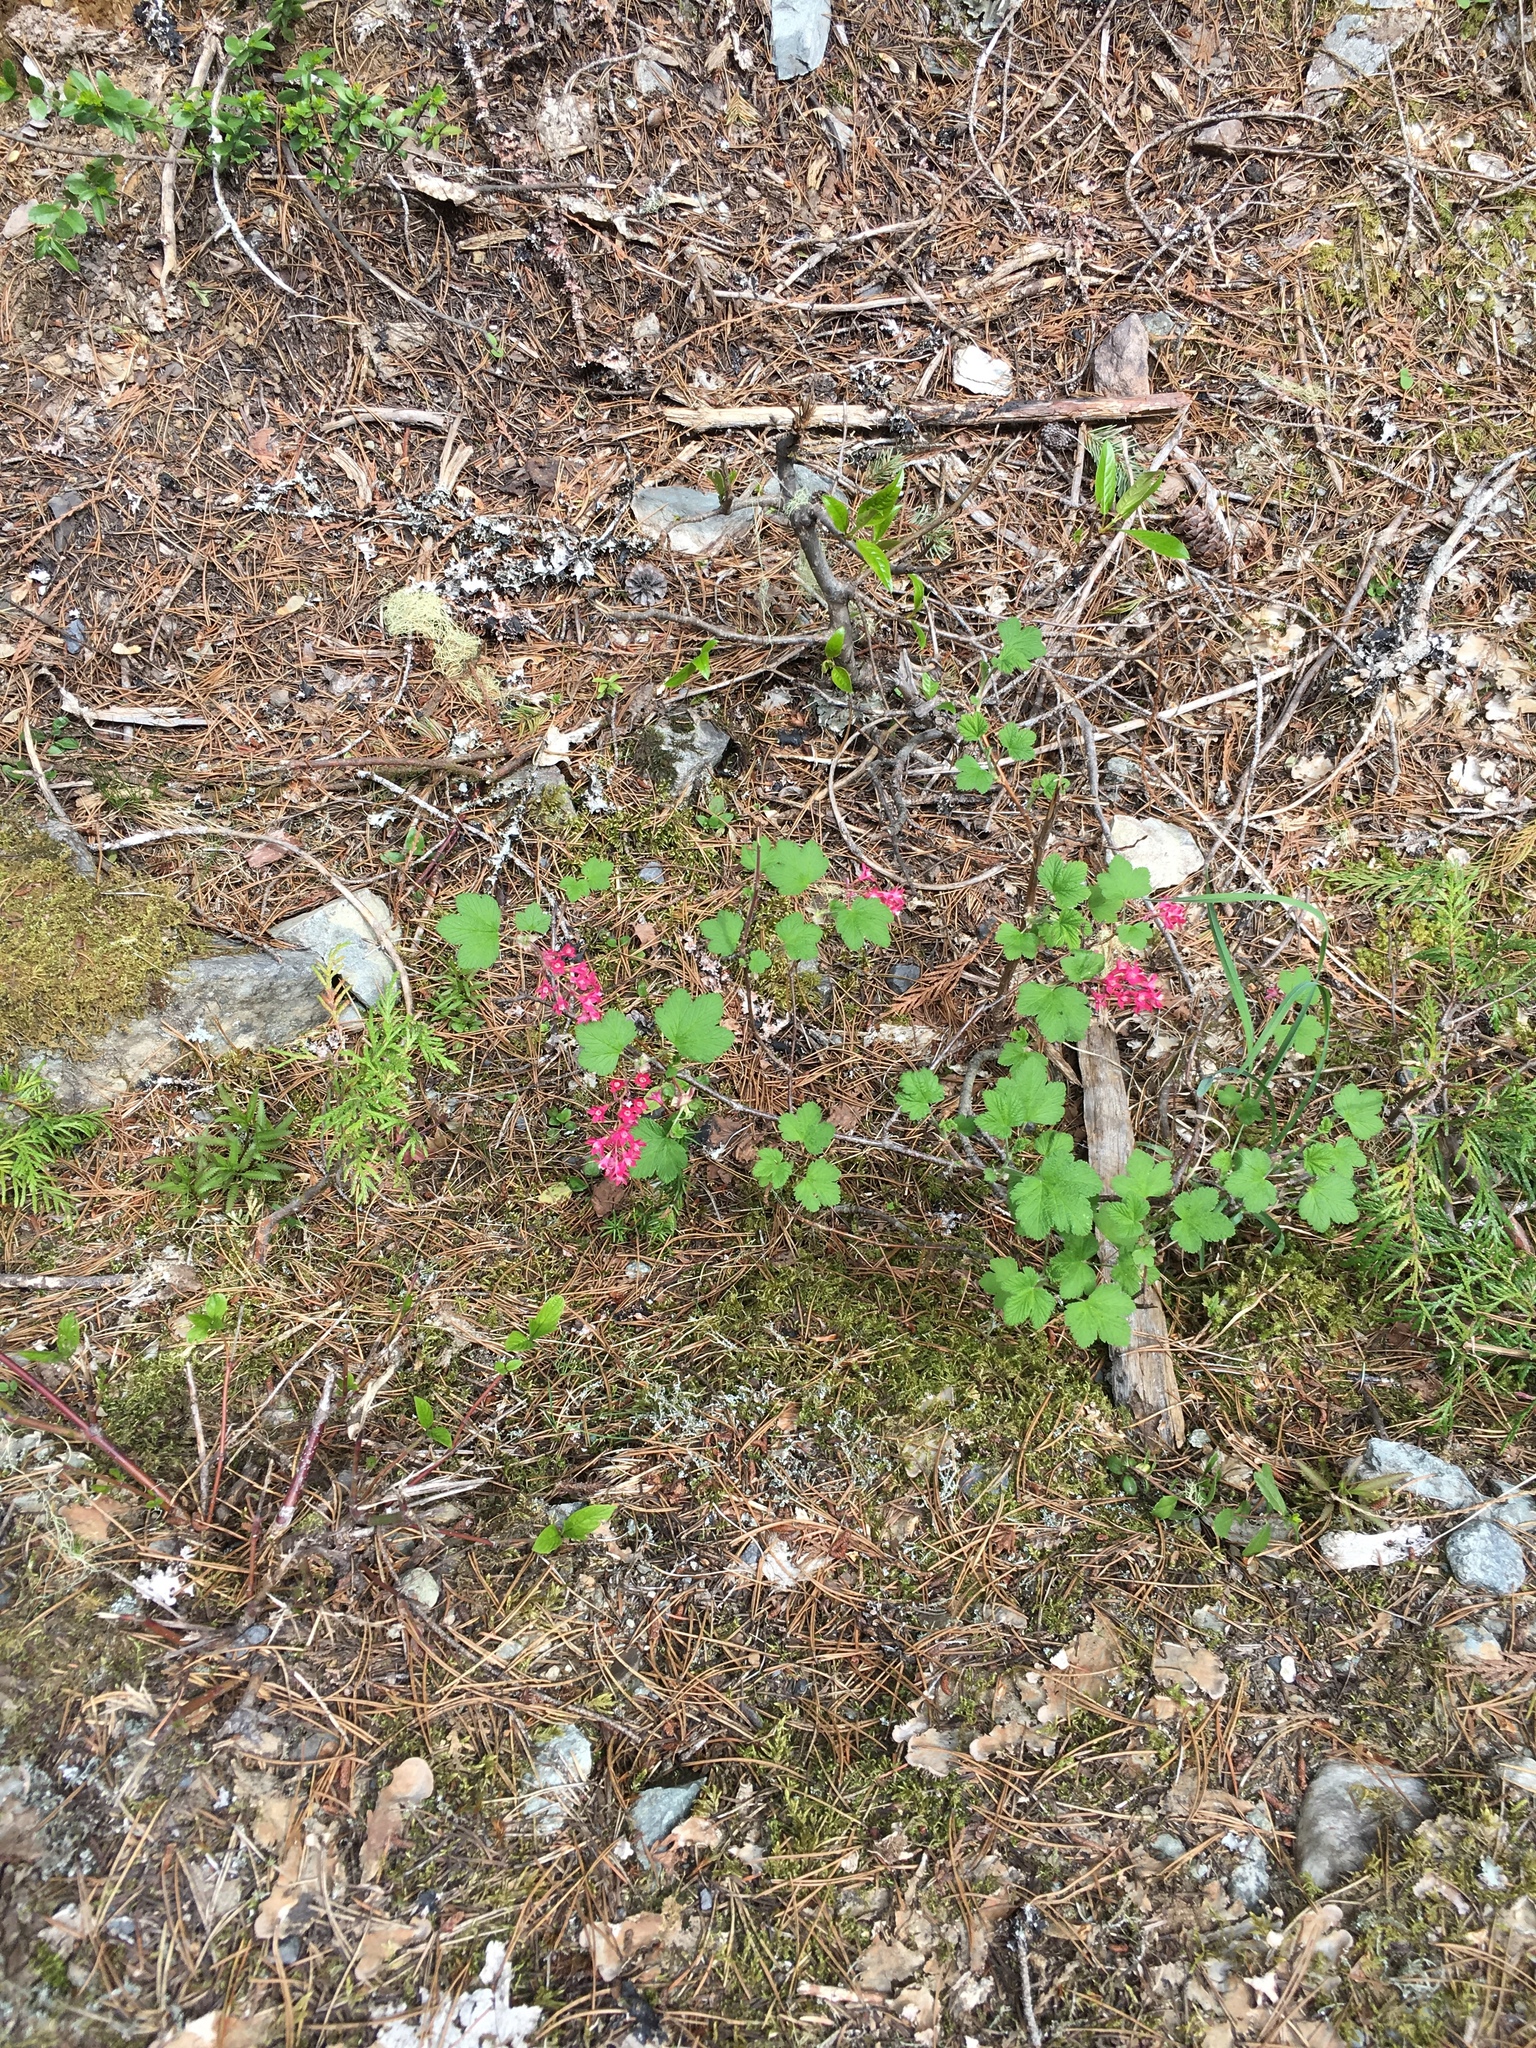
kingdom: Plantae
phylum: Tracheophyta
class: Magnoliopsida
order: Saxifragales
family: Grossulariaceae
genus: Ribes
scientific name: Ribes sanguineum
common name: Flowering currant
